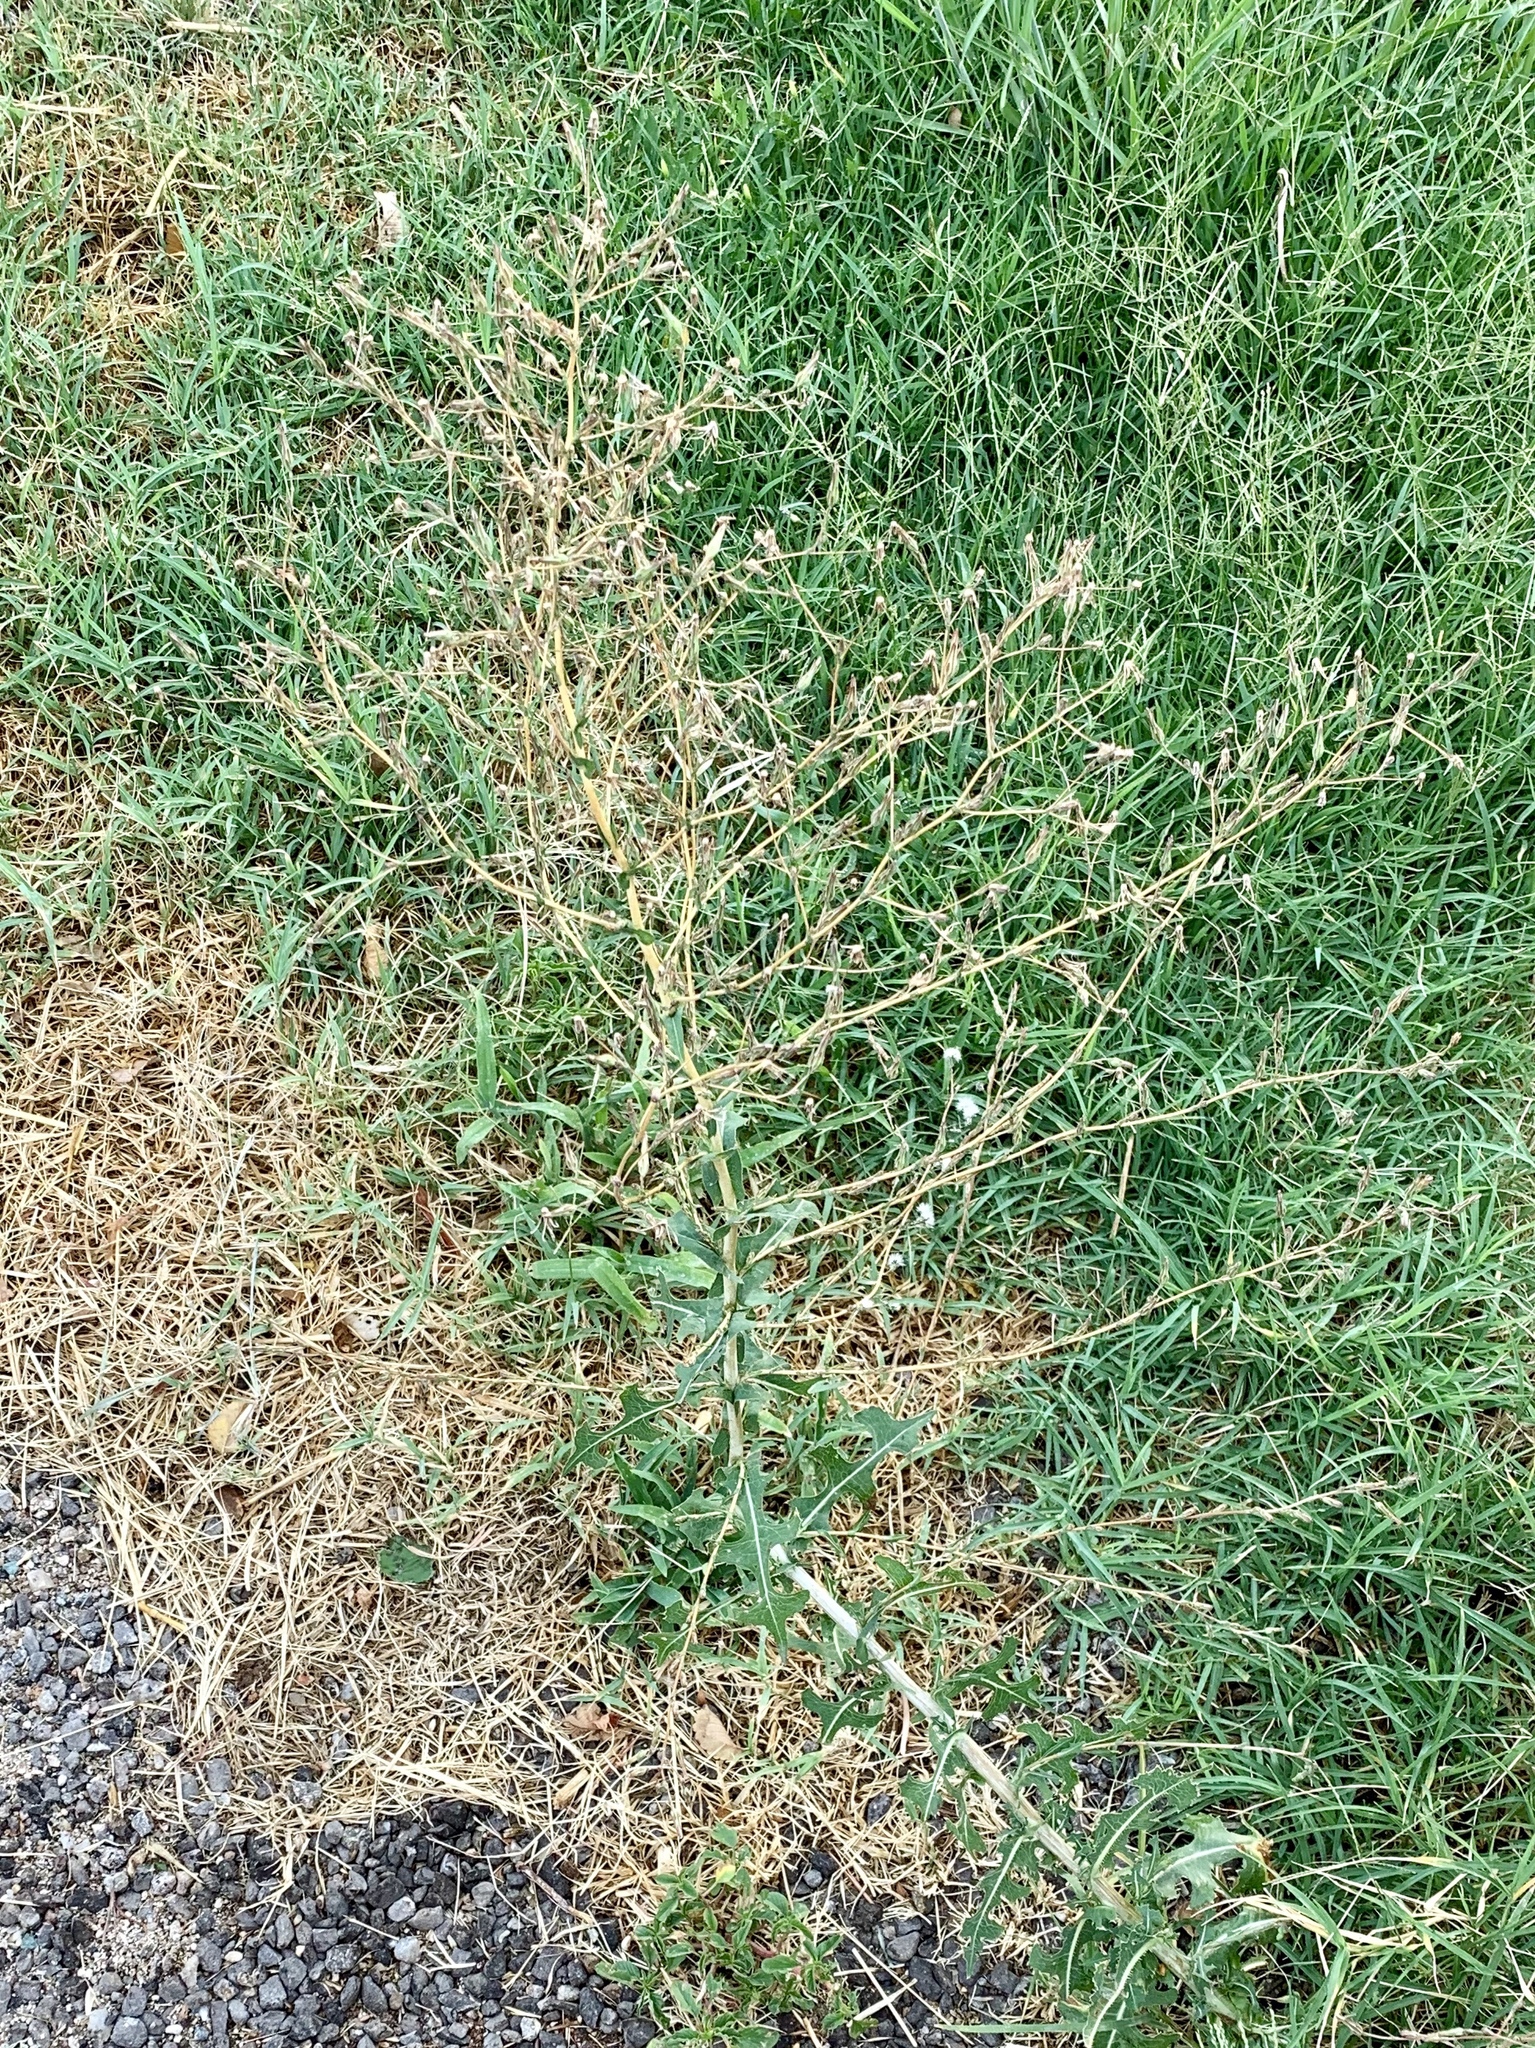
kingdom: Plantae
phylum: Tracheophyta
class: Magnoliopsida
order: Asterales
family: Asteraceae
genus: Lactuca
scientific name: Lactuca serriola
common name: Prickly lettuce
